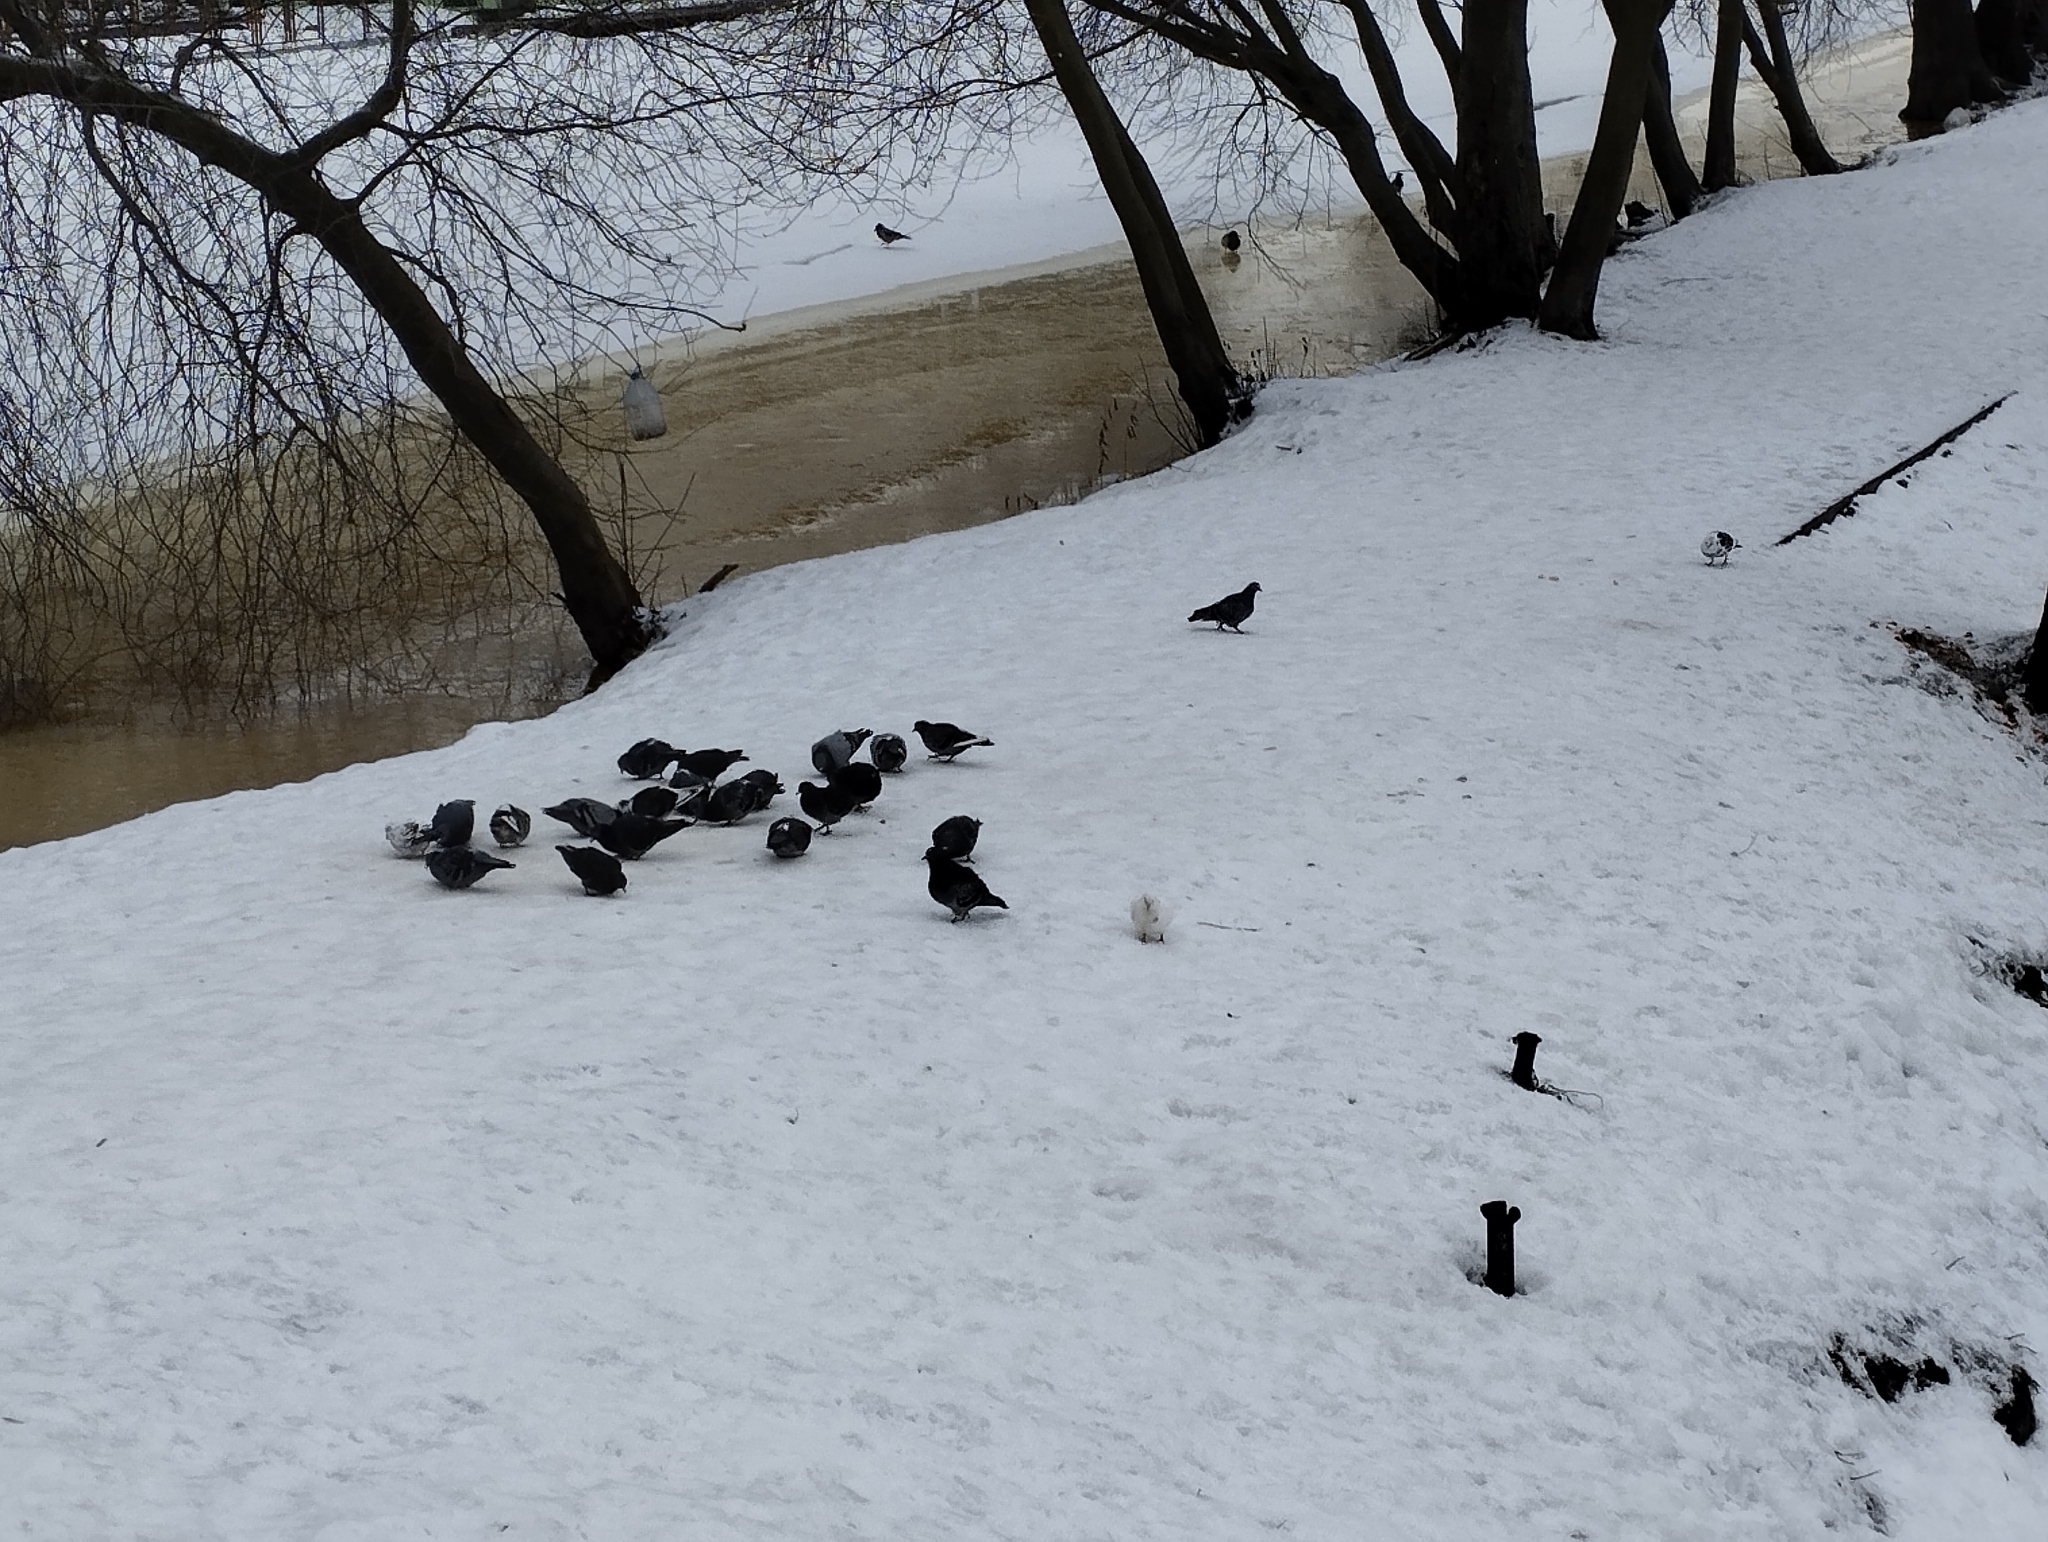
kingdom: Animalia
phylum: Chordata
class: Aves
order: Columbiformes
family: Columbidae
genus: Columba
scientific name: Columba livia
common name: Rock pigeon
